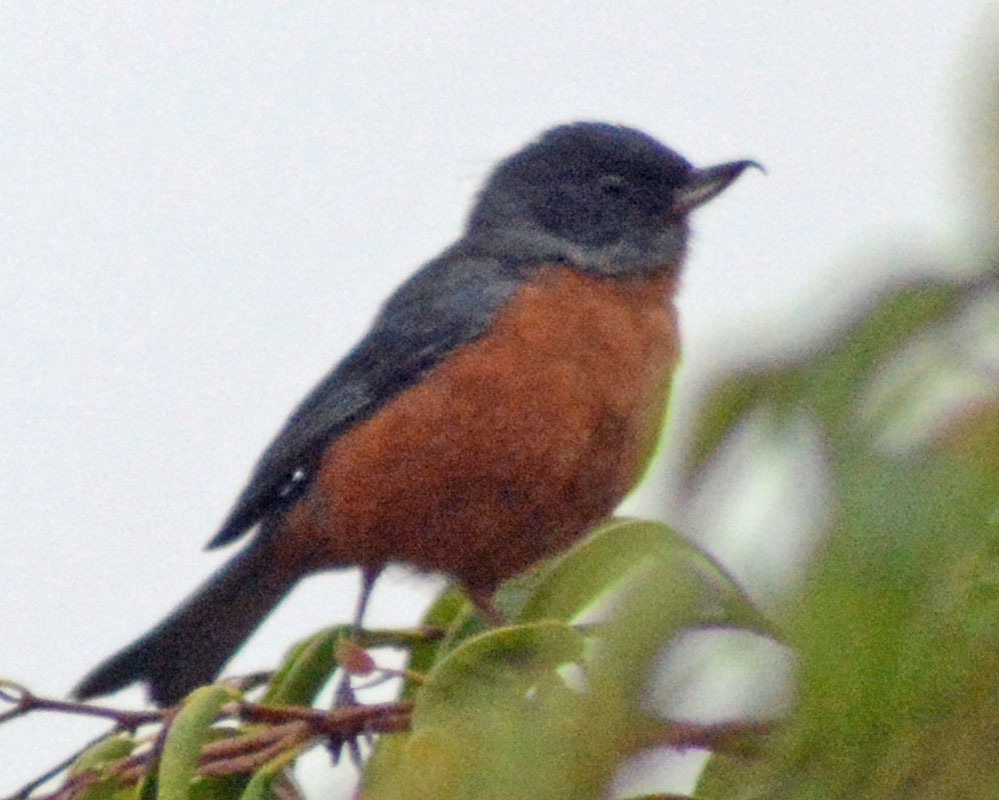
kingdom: Animalia
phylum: Chordata
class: Aves
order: Passeriformes
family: Thraupidae
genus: Diglossa
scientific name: Diglossa baritula
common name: Cinnamon-bellied flowerpiercer
